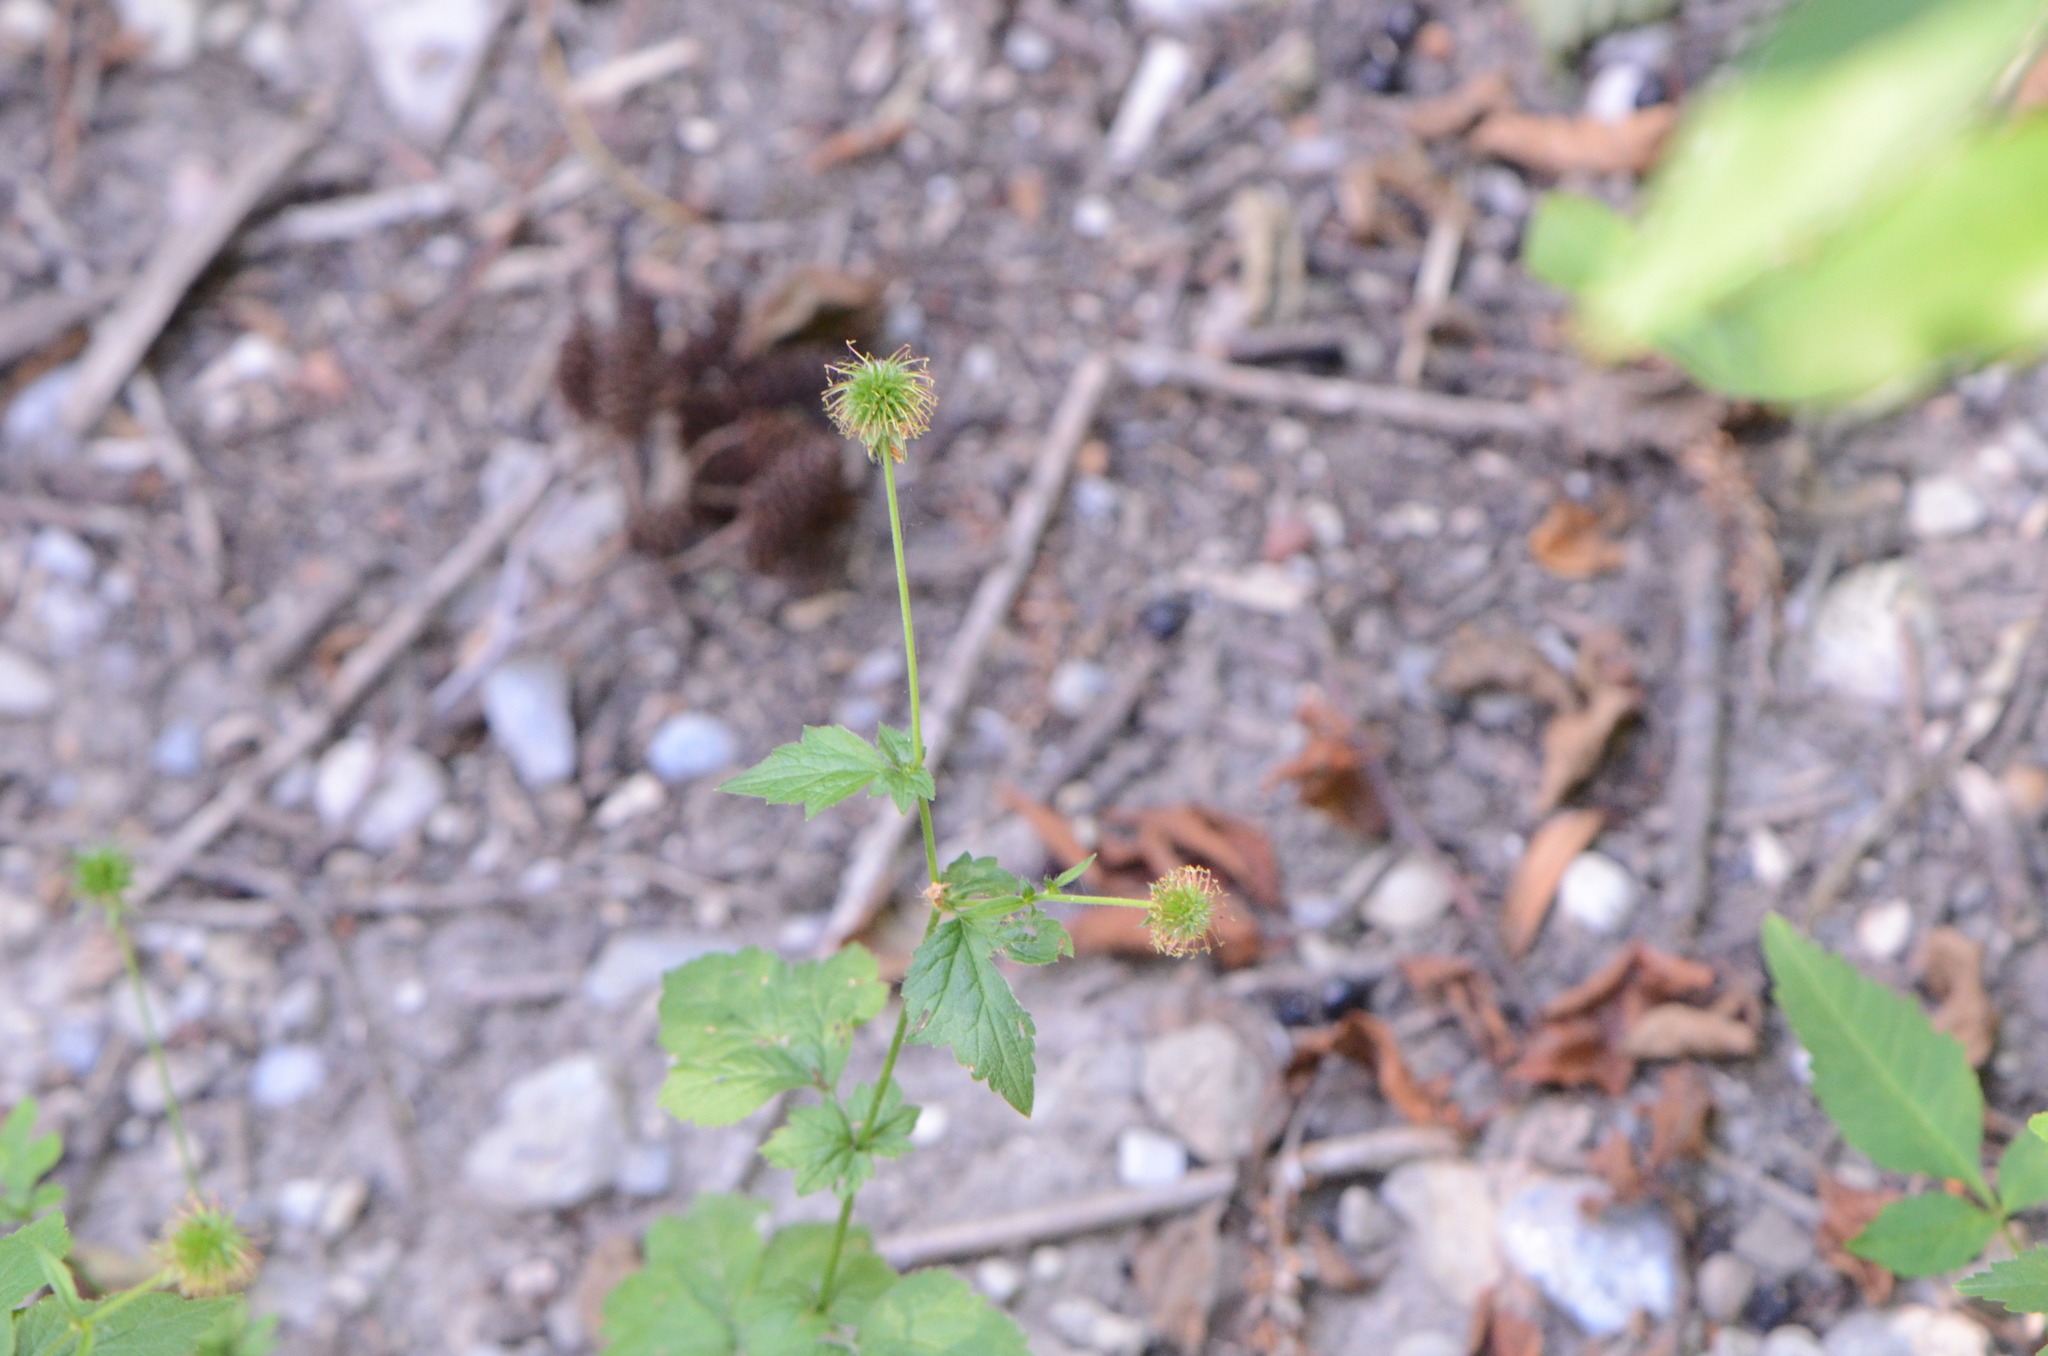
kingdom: Plantae
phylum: Tracheophyta
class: Magnoliopsida
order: Rosales
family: Rosaceae
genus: Geum
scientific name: Geum urbanum
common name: Wood avens
